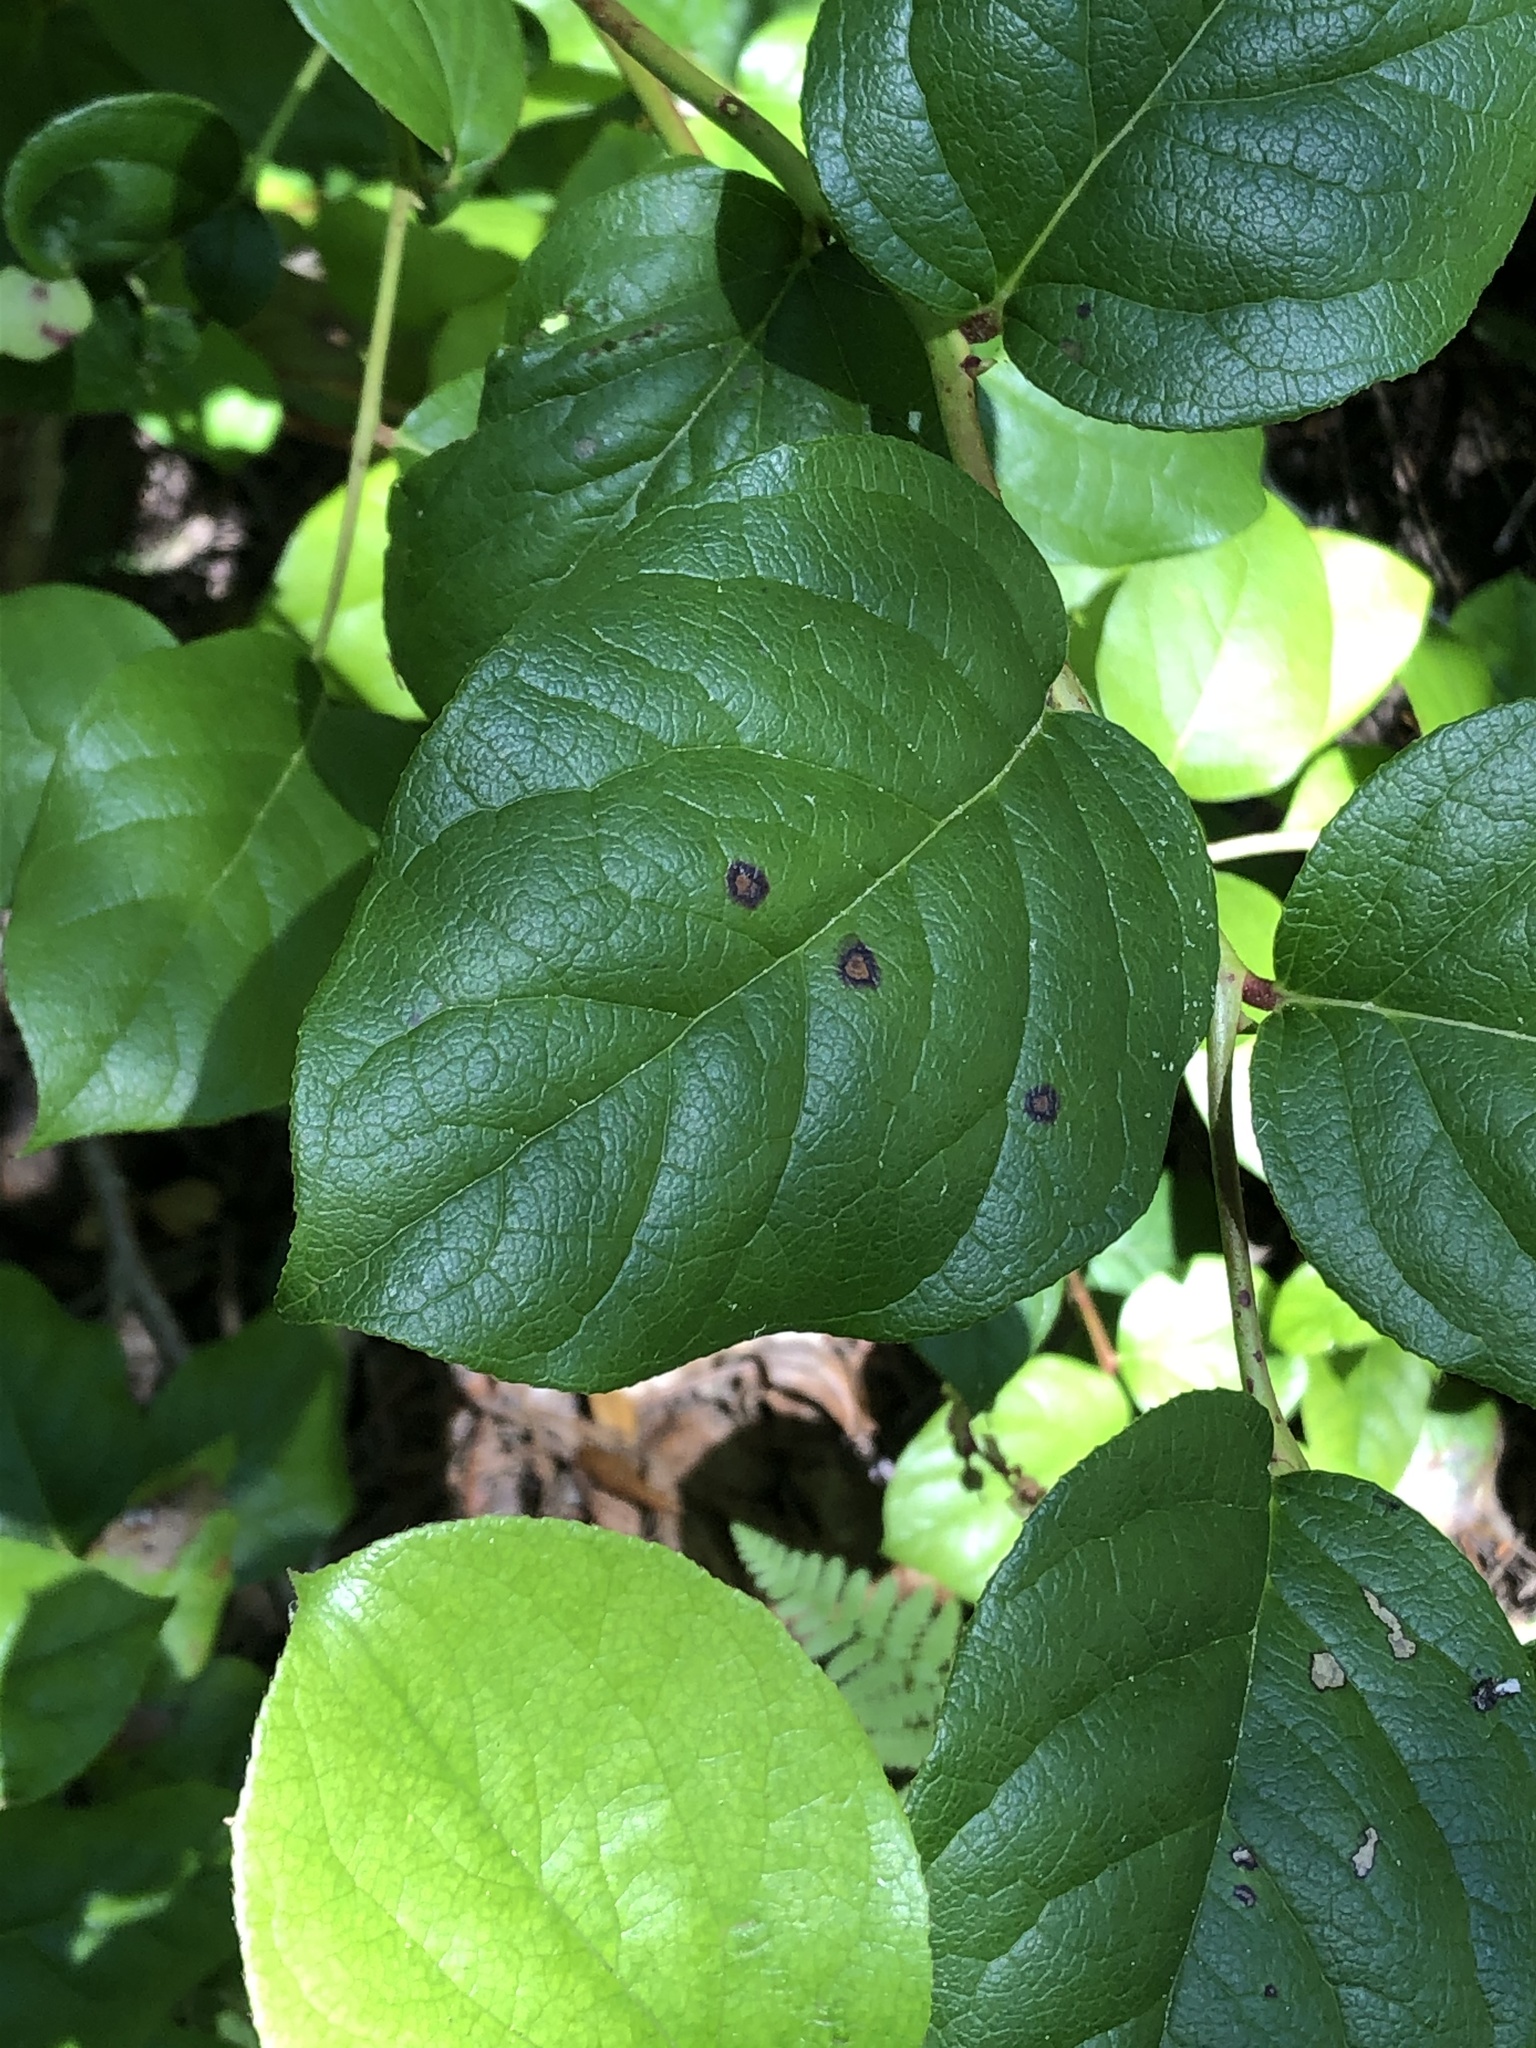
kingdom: Plantae
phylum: Tracheophyta
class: Magnoliopsida
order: Ericales
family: Ericaceae
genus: Gaultheria
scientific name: Gaultheria shallon
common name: Shallon
